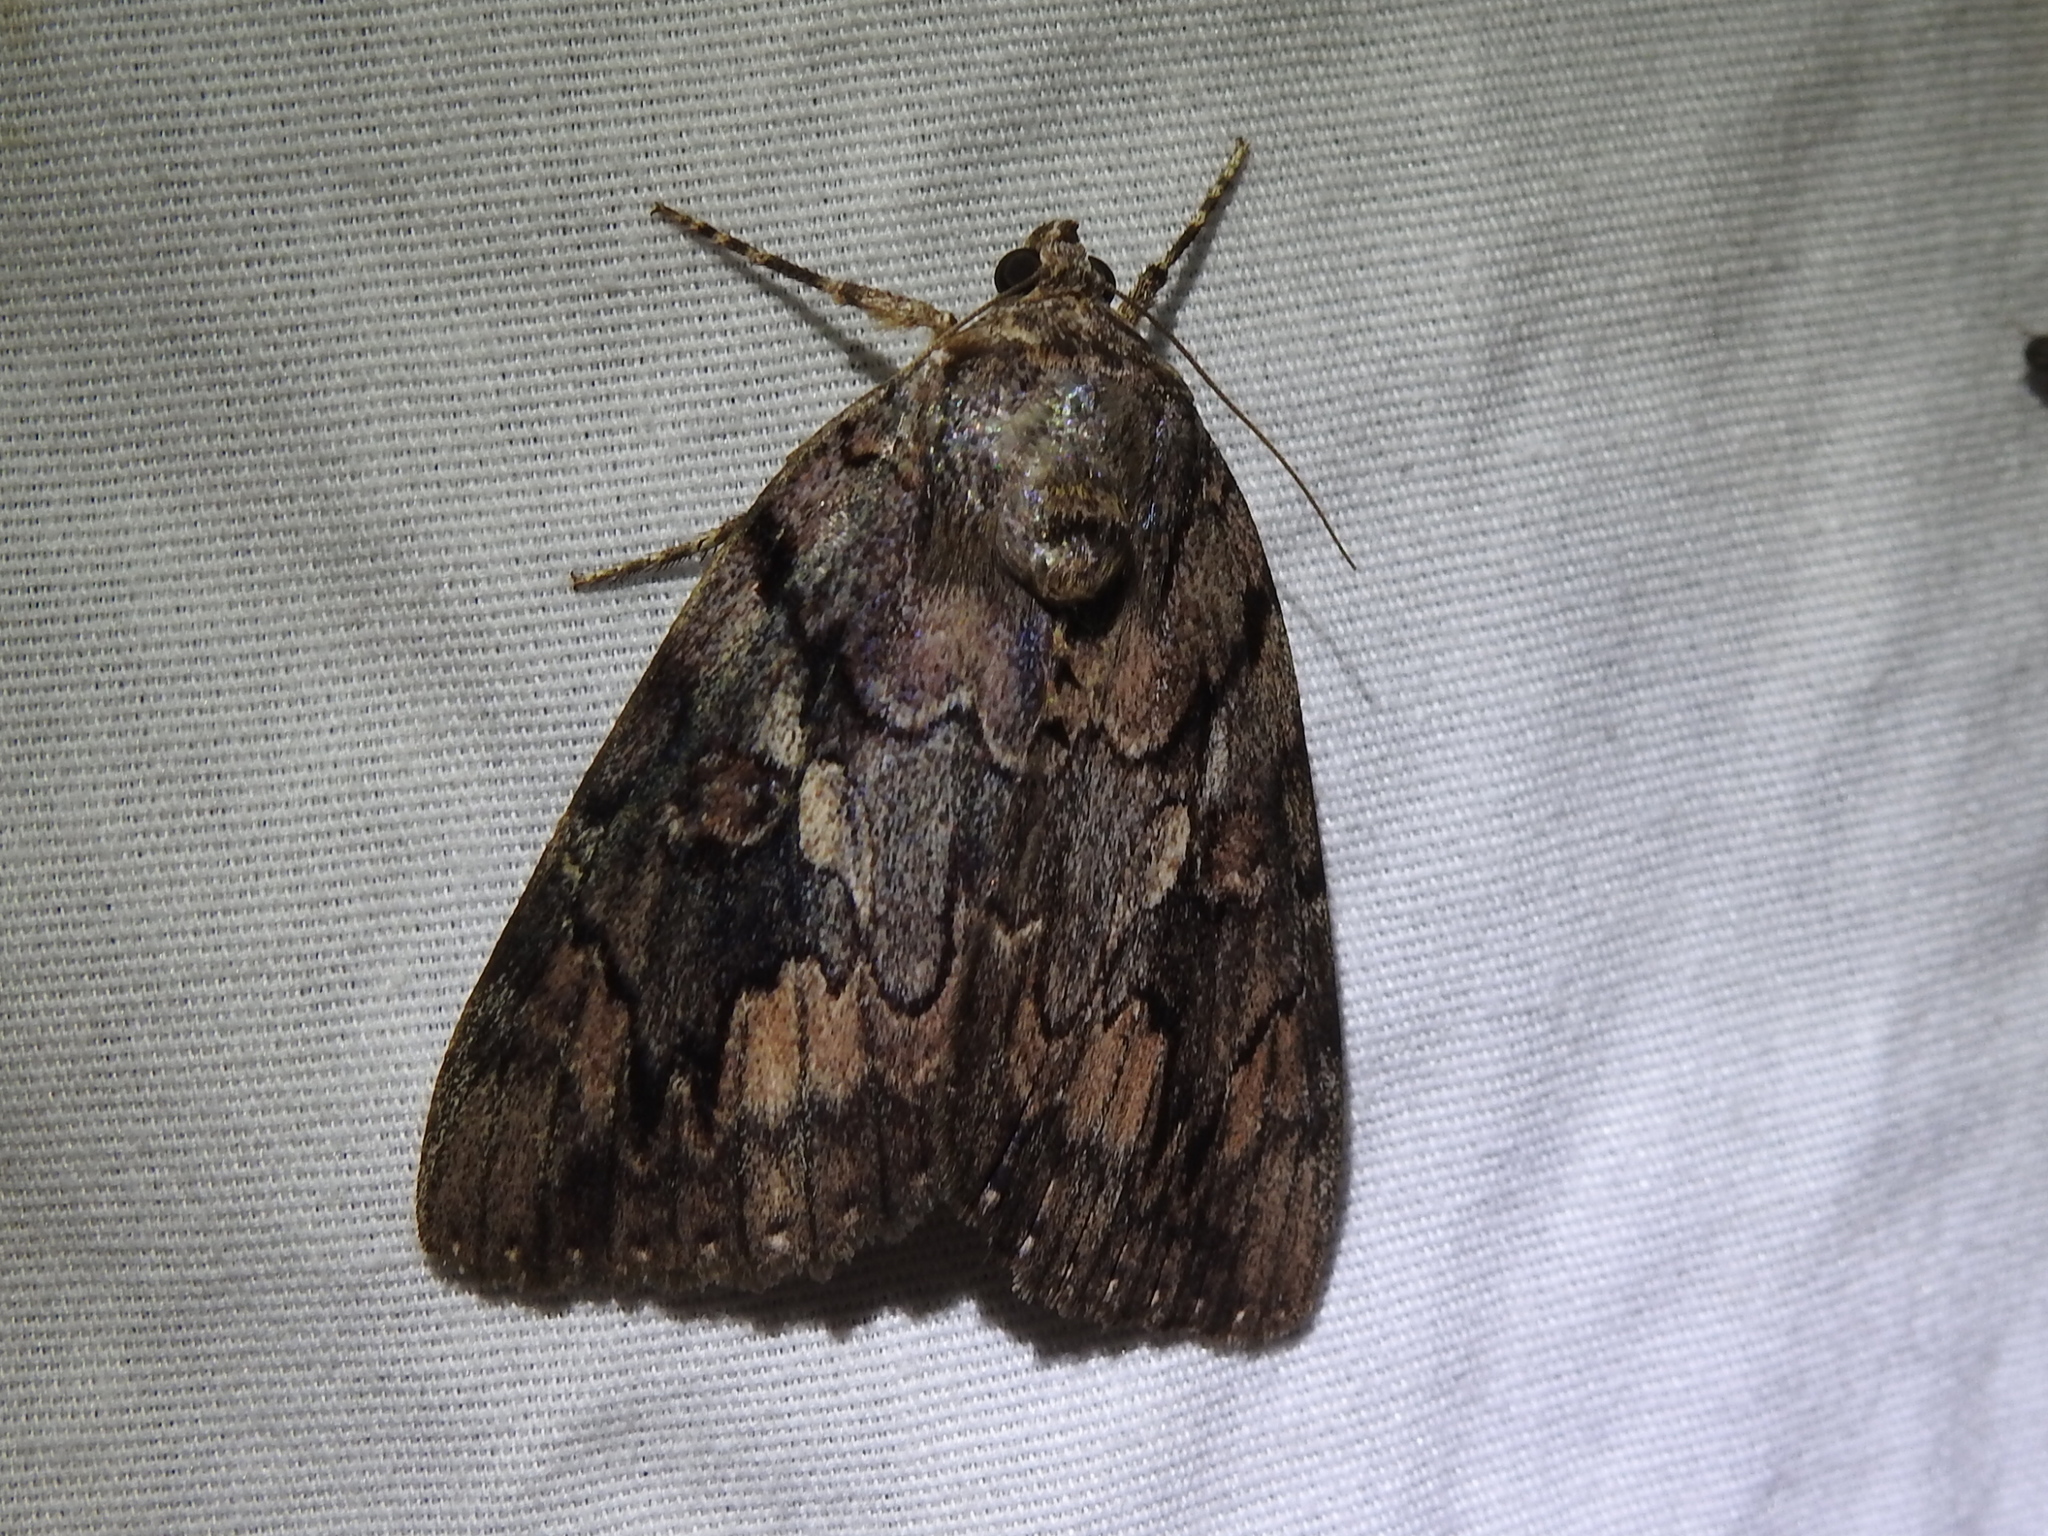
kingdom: Animalia
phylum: Arthropoda
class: Insecta
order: Lepidoptera
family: Erebidae
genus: Catocala
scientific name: Catocala agrippina
